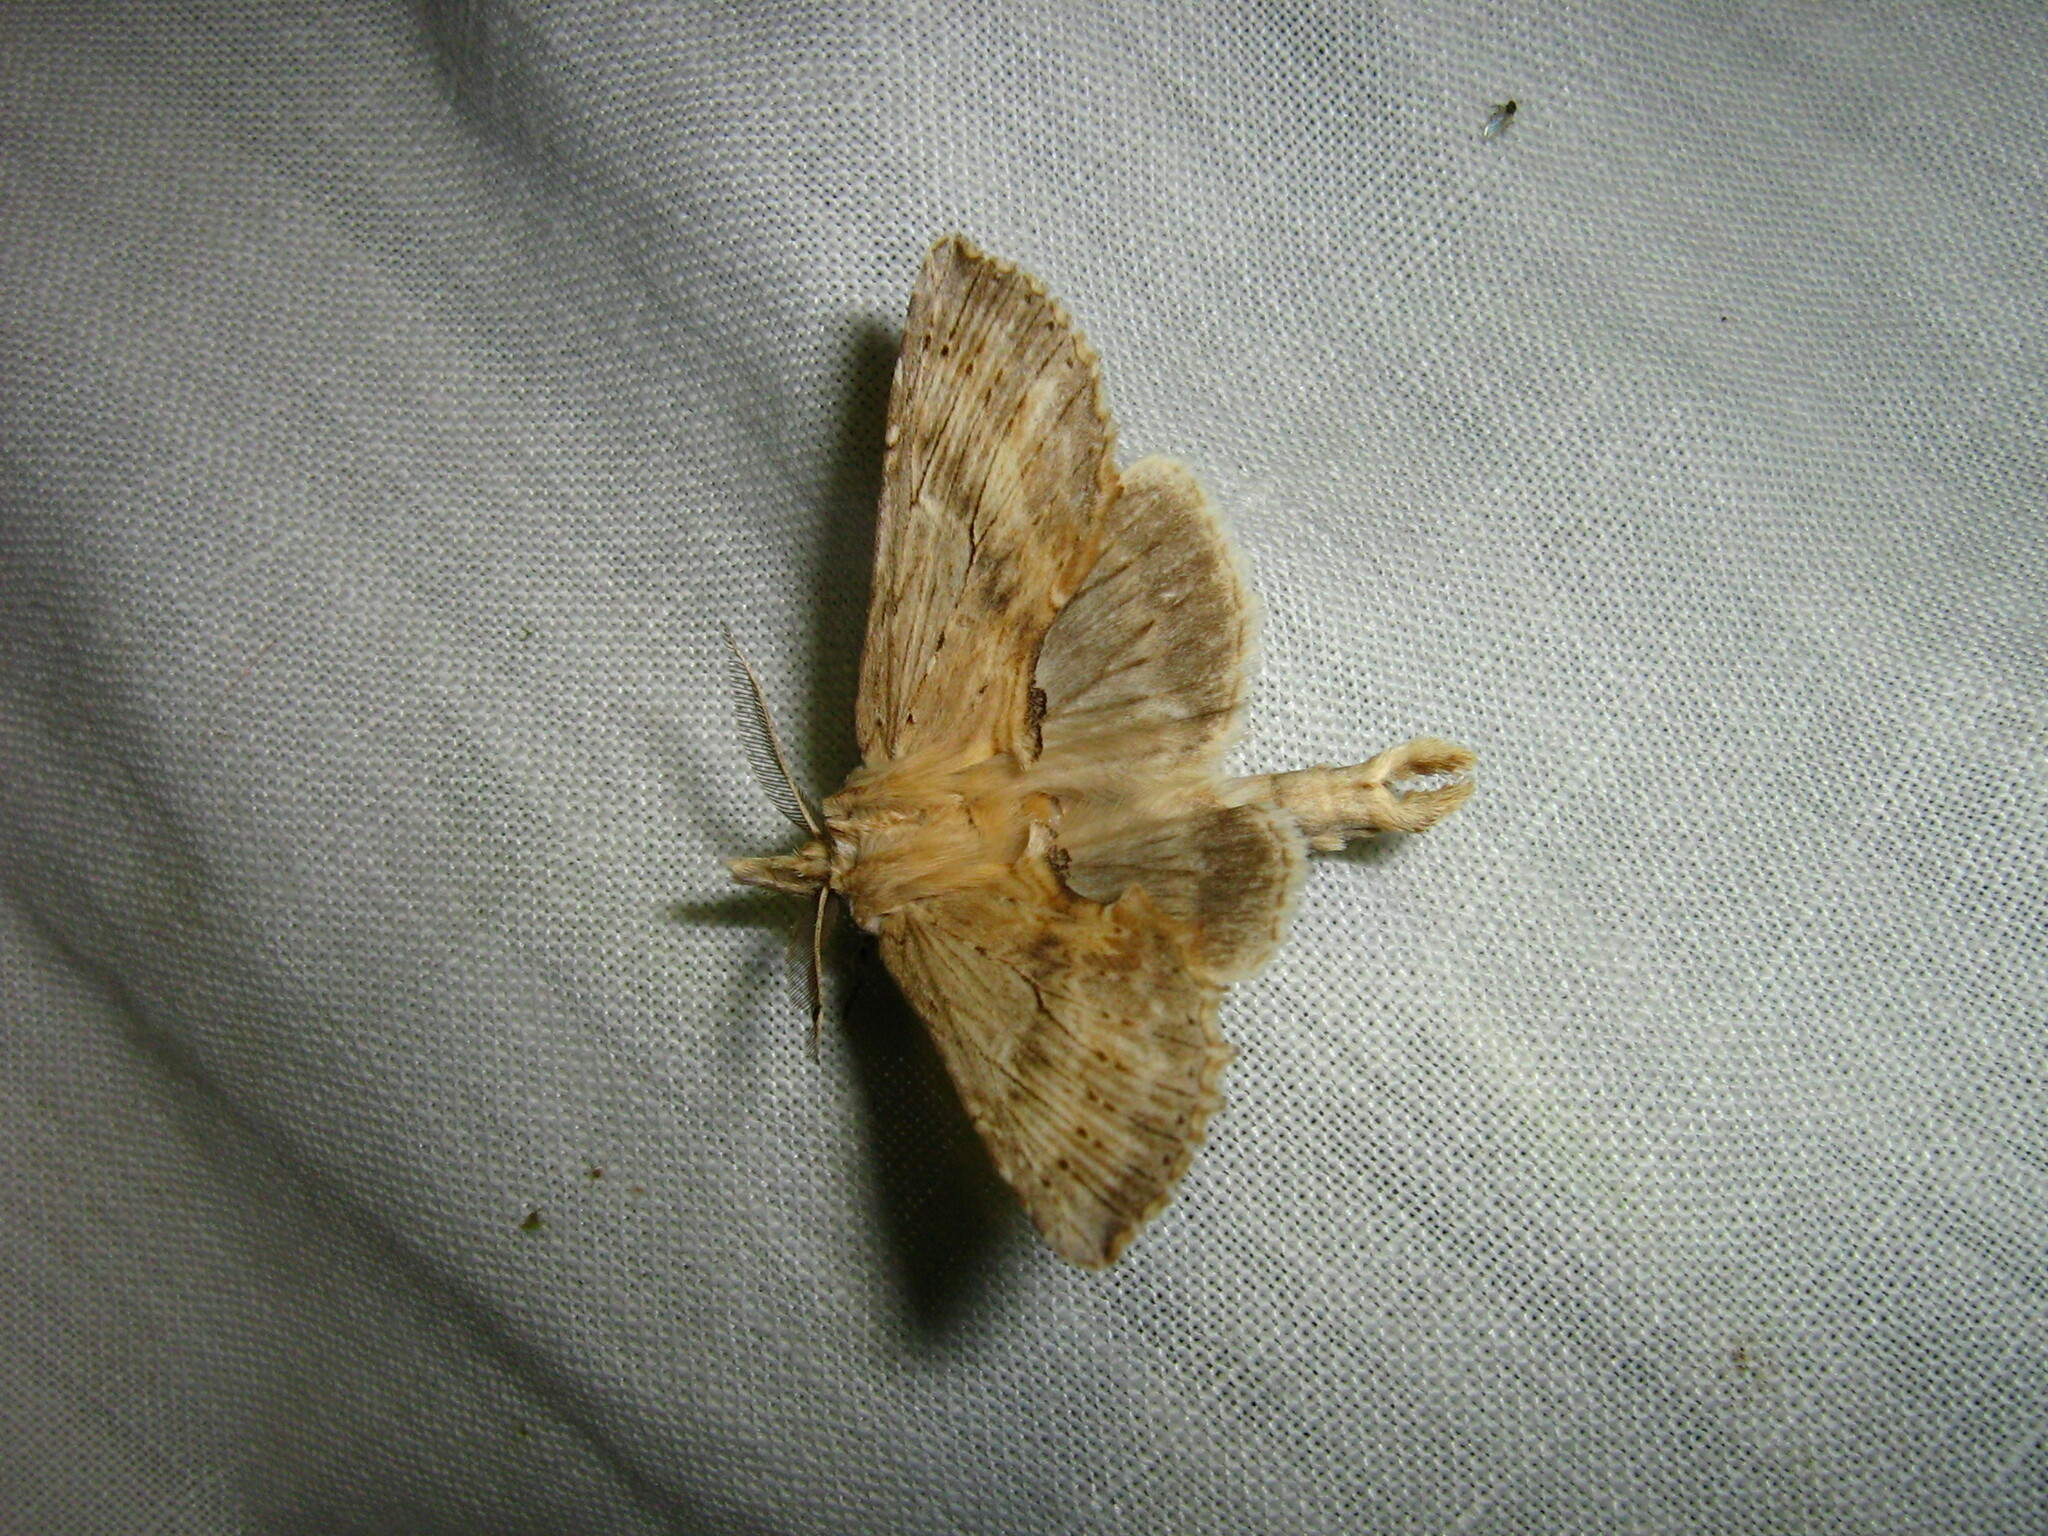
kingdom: Animalia
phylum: Arthropoda
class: Insecta
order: Lepidoptera
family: Notodontidae
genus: Pterostoma
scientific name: Pterostoma palpina
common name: Pale prominent
